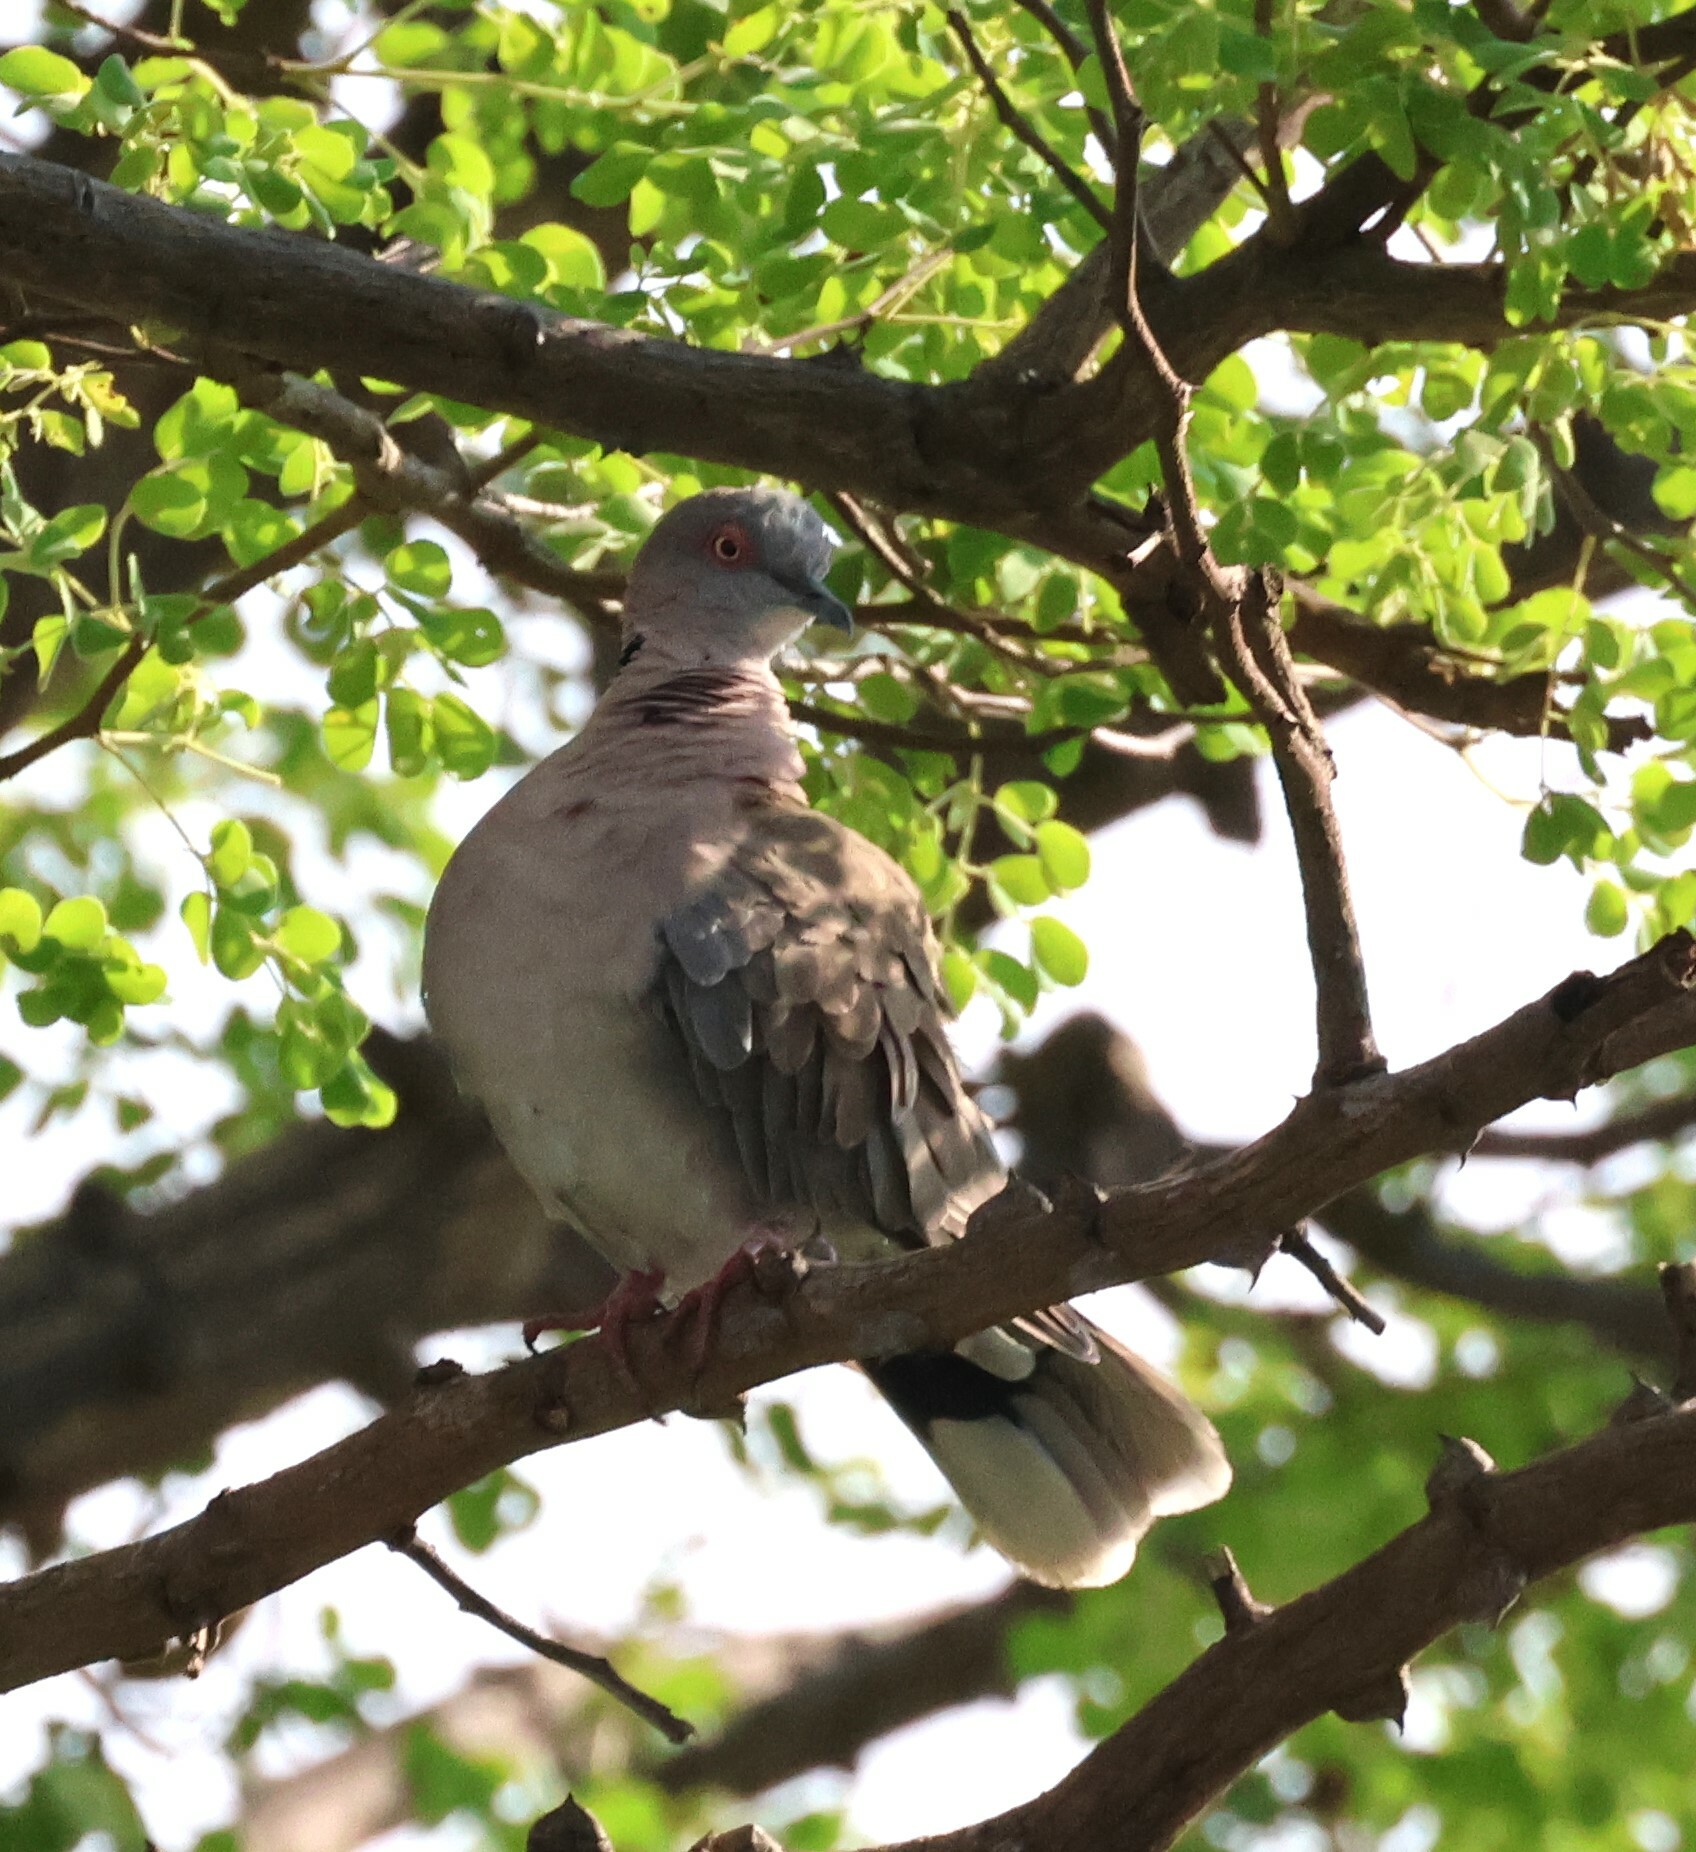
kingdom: Animalia
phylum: Chordata
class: Aves
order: Columbiformes
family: Columbidae
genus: Streptopelia
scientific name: Streptopelia decipiens
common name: Mourning collared dove
